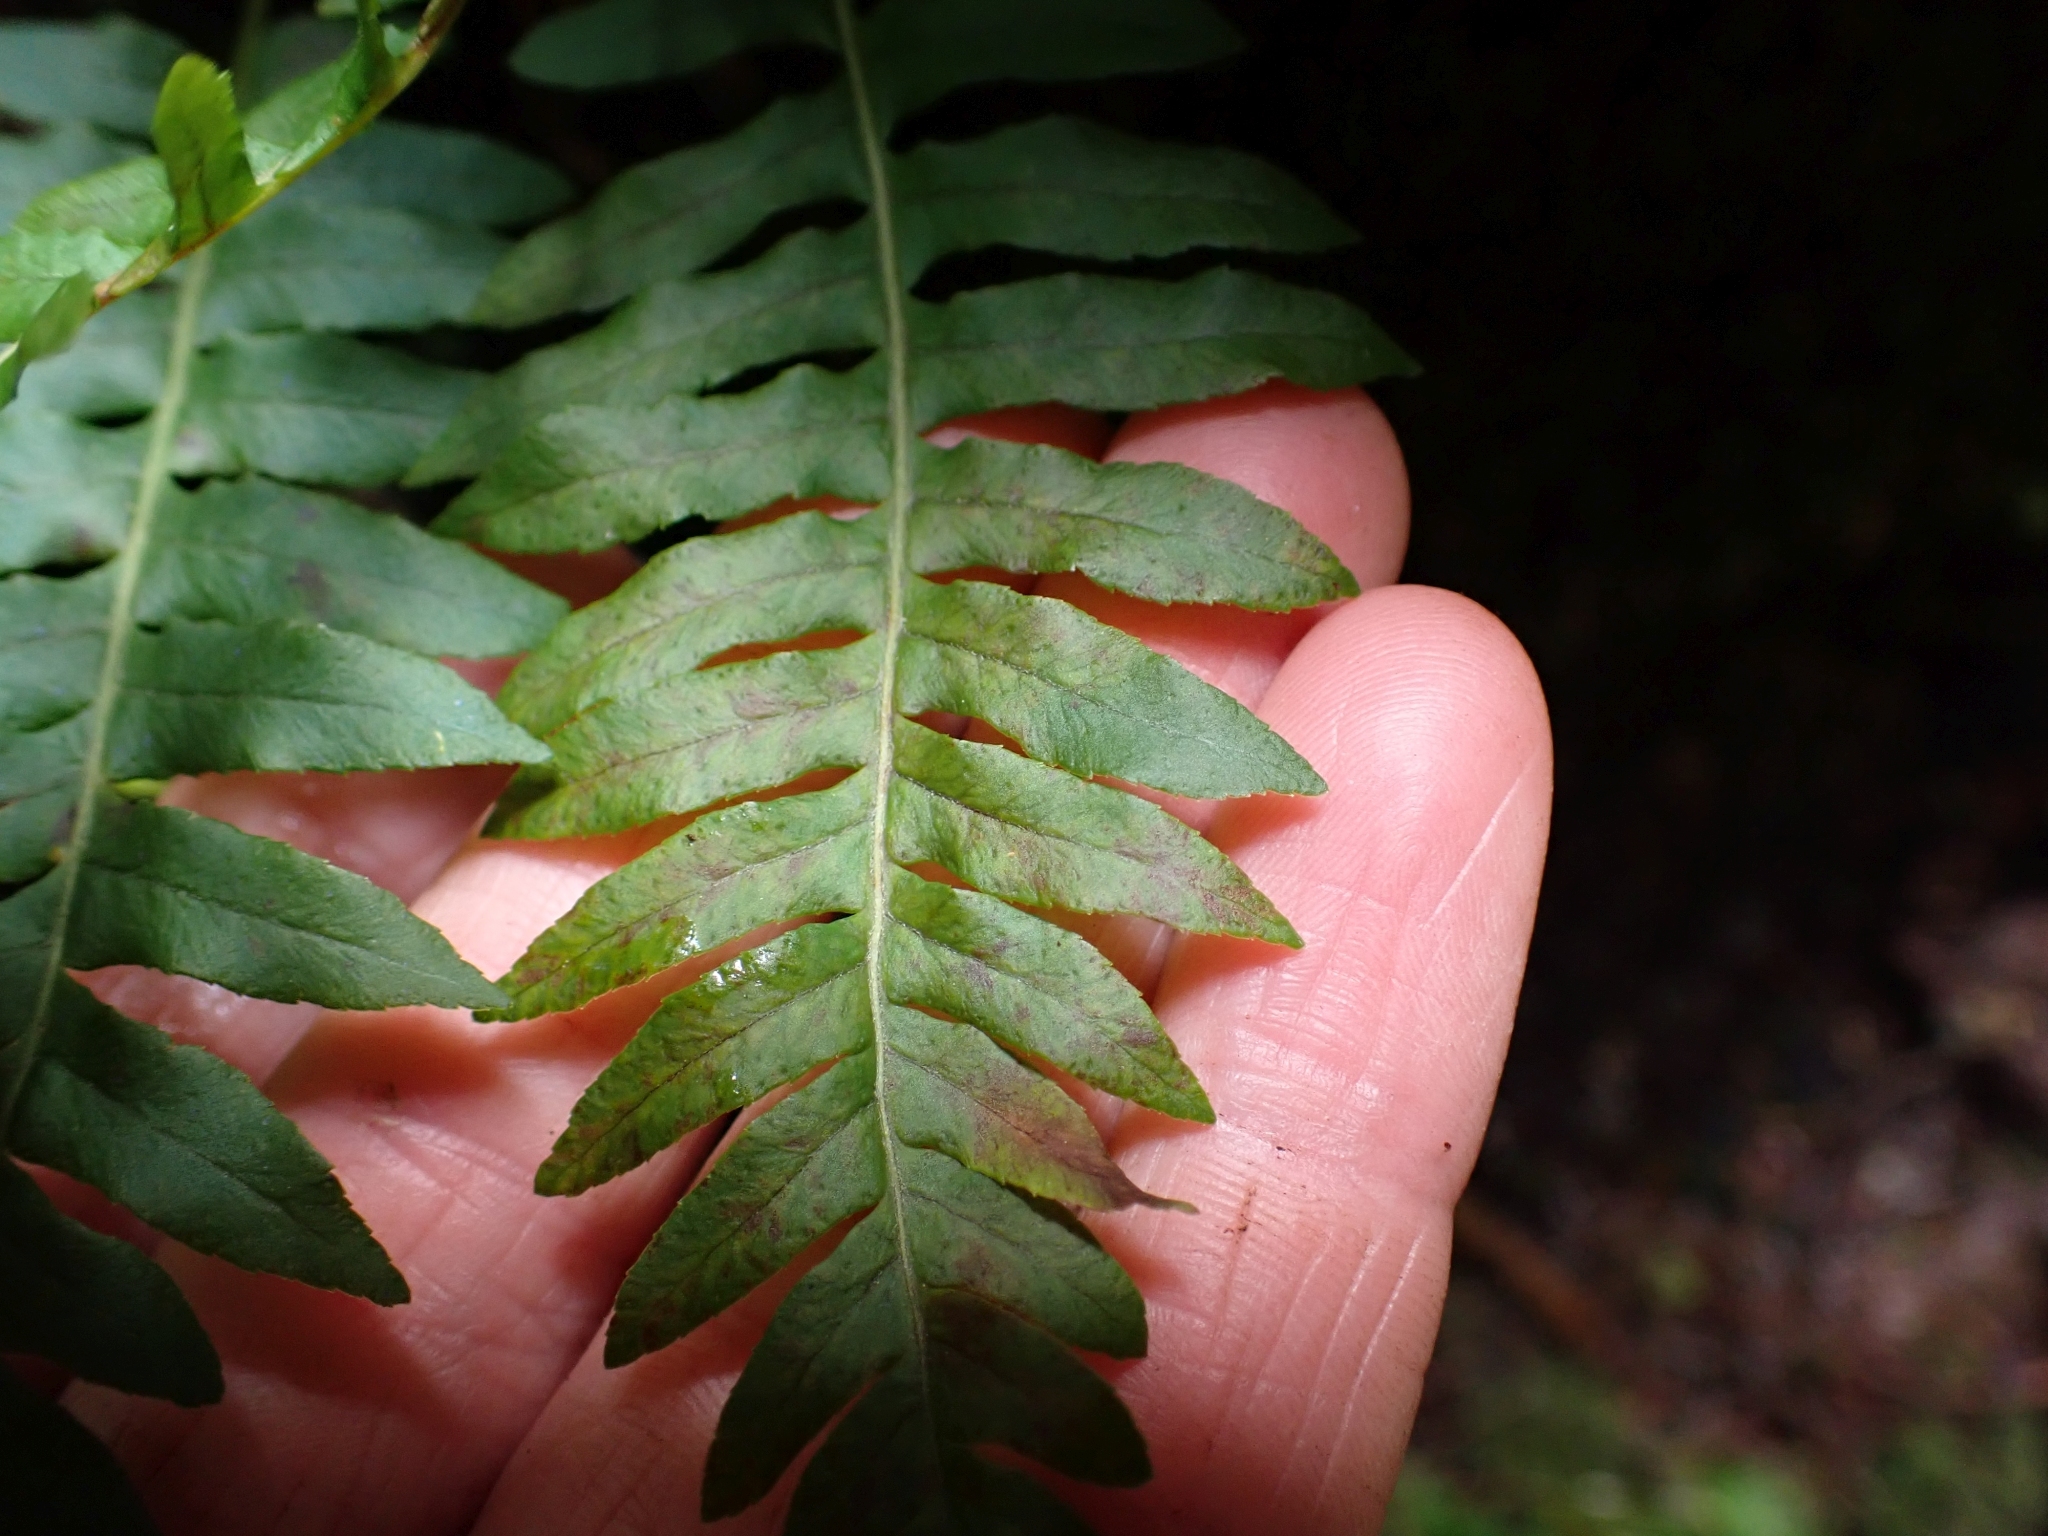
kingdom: Plantae
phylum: Tracheophyta
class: Polypodiopsida
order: Polypodiales
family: Polypodiaceae
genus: Polypodium
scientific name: Polypodium glycyrrhiza
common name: Licorice fern
